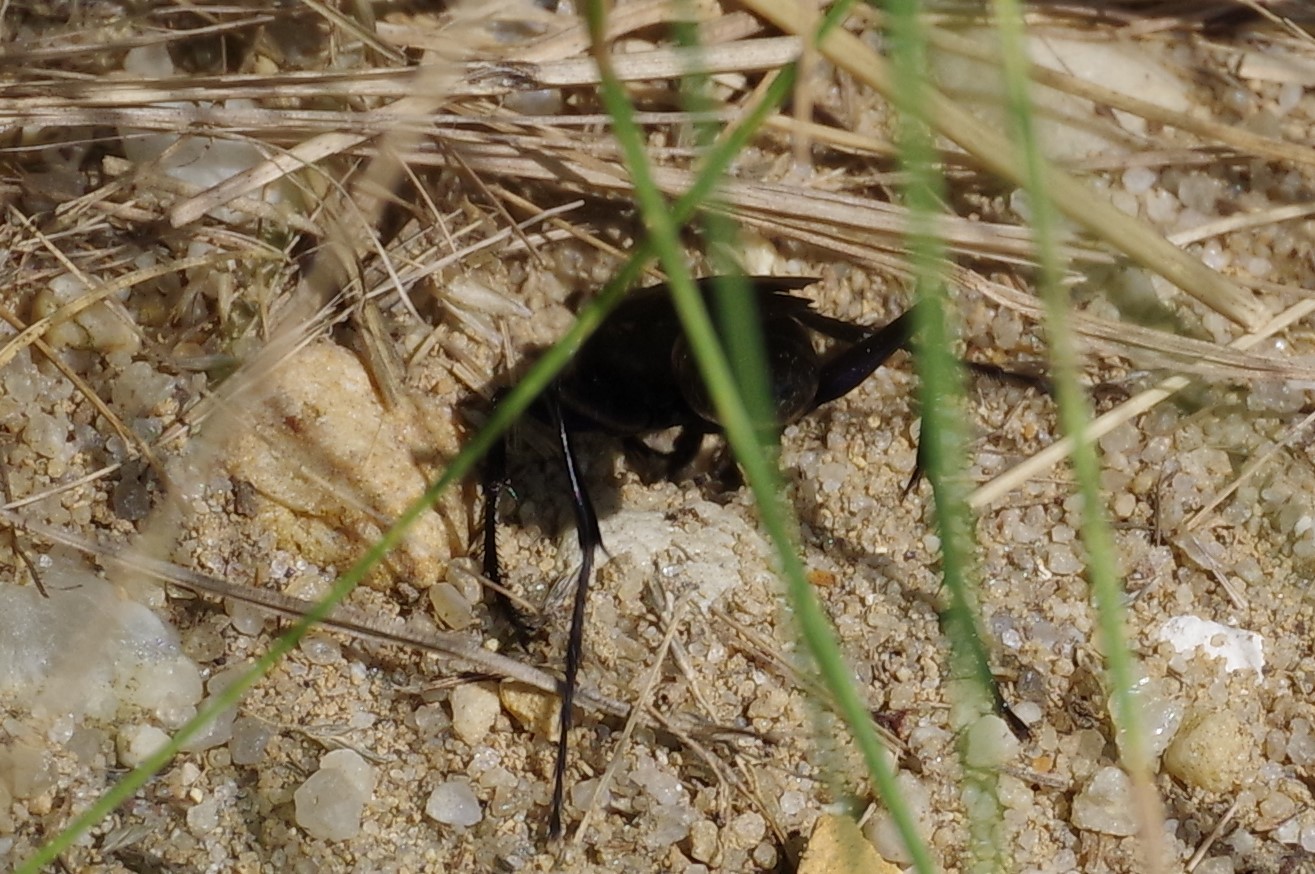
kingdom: Animalia
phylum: Arthropoda
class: Insecta
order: Hymenoptera
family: Sphecidae
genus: Chlorion
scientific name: Chlorion aerarium
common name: Steel-blue cricket hunter
